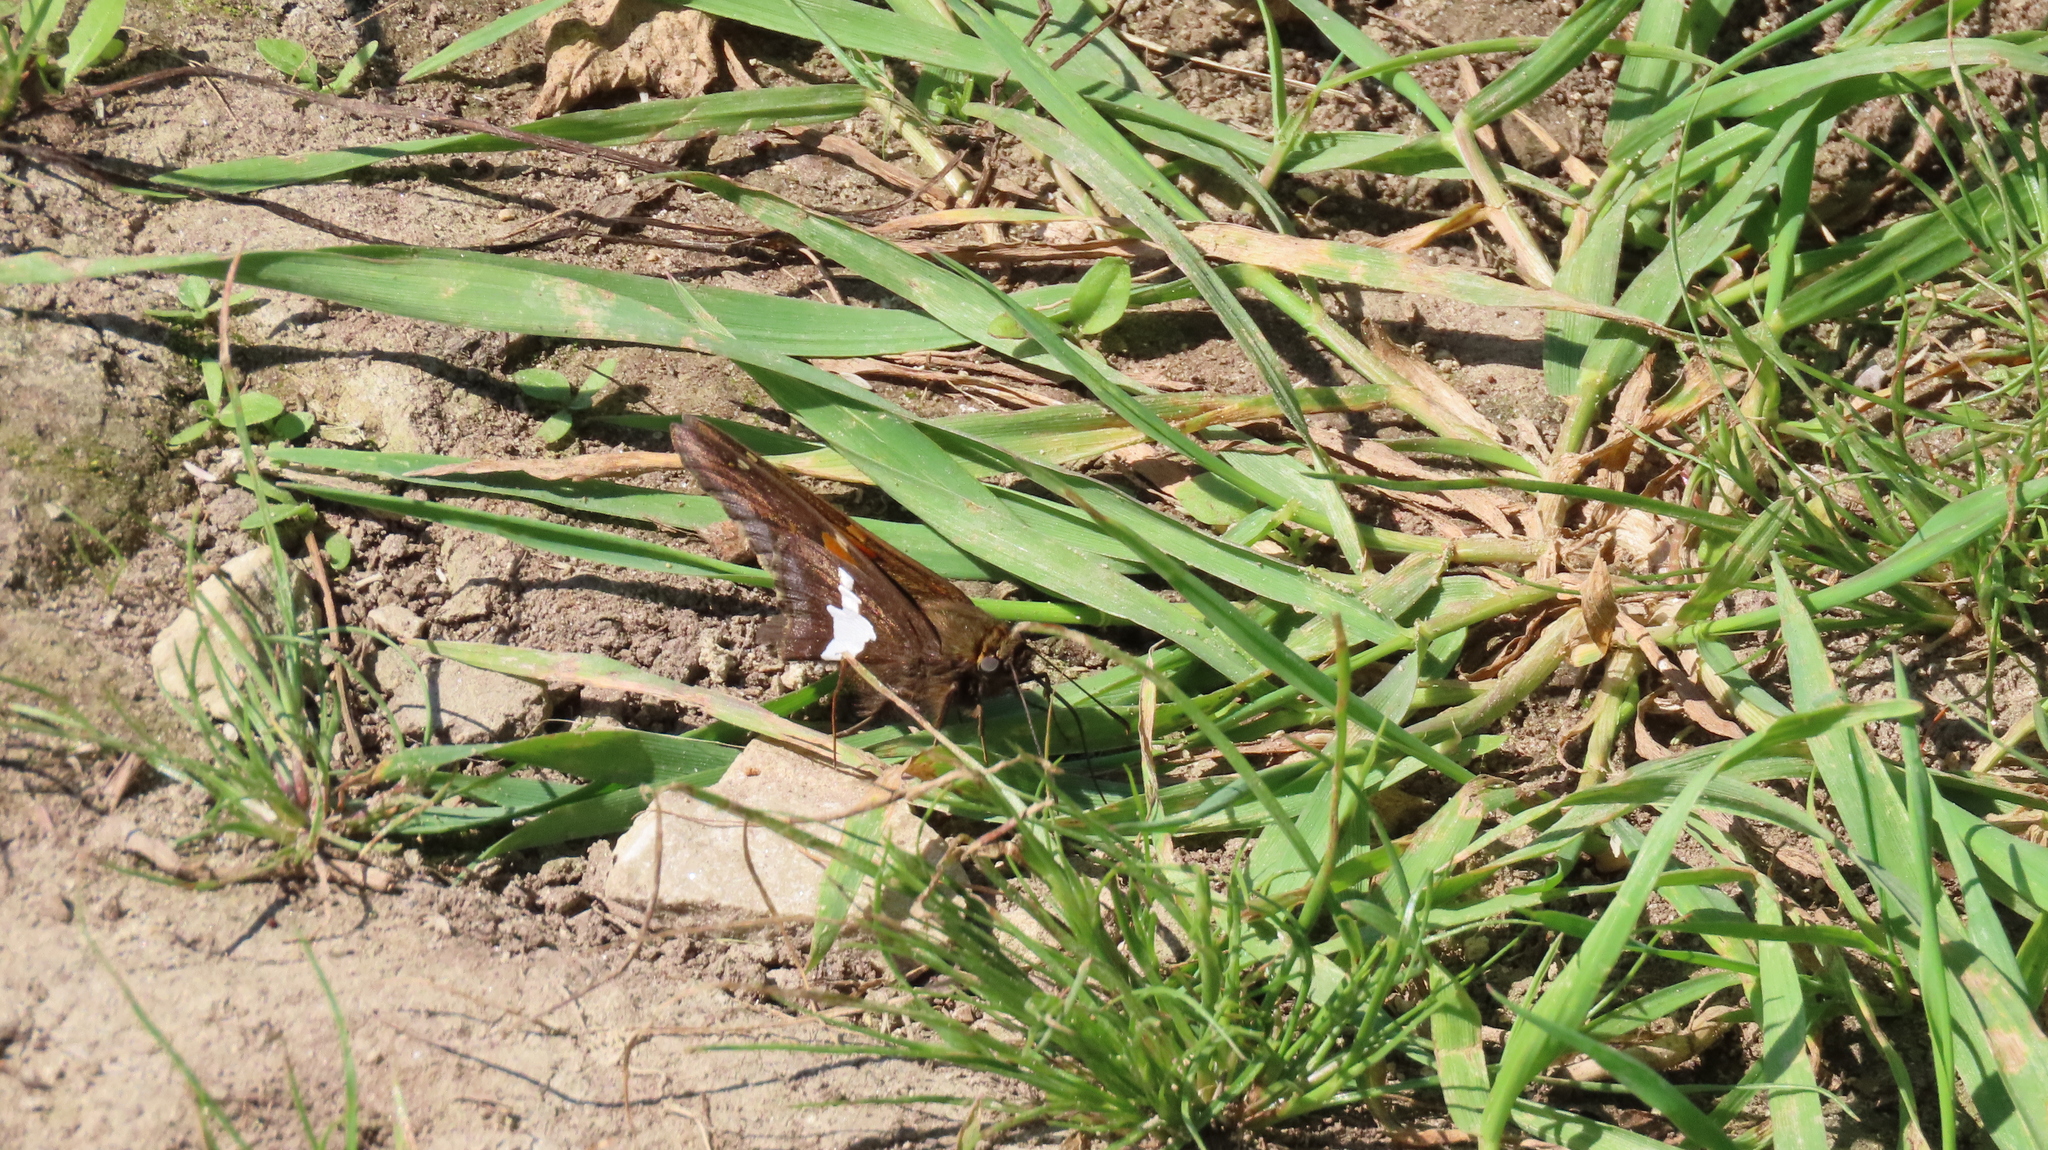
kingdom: Animalia
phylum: Arthropoda
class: Insecta
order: Lepidoptera
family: Hesperiidae
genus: Epargyreus
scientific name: Epargyreus clarus
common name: Silver-spotted skipper
